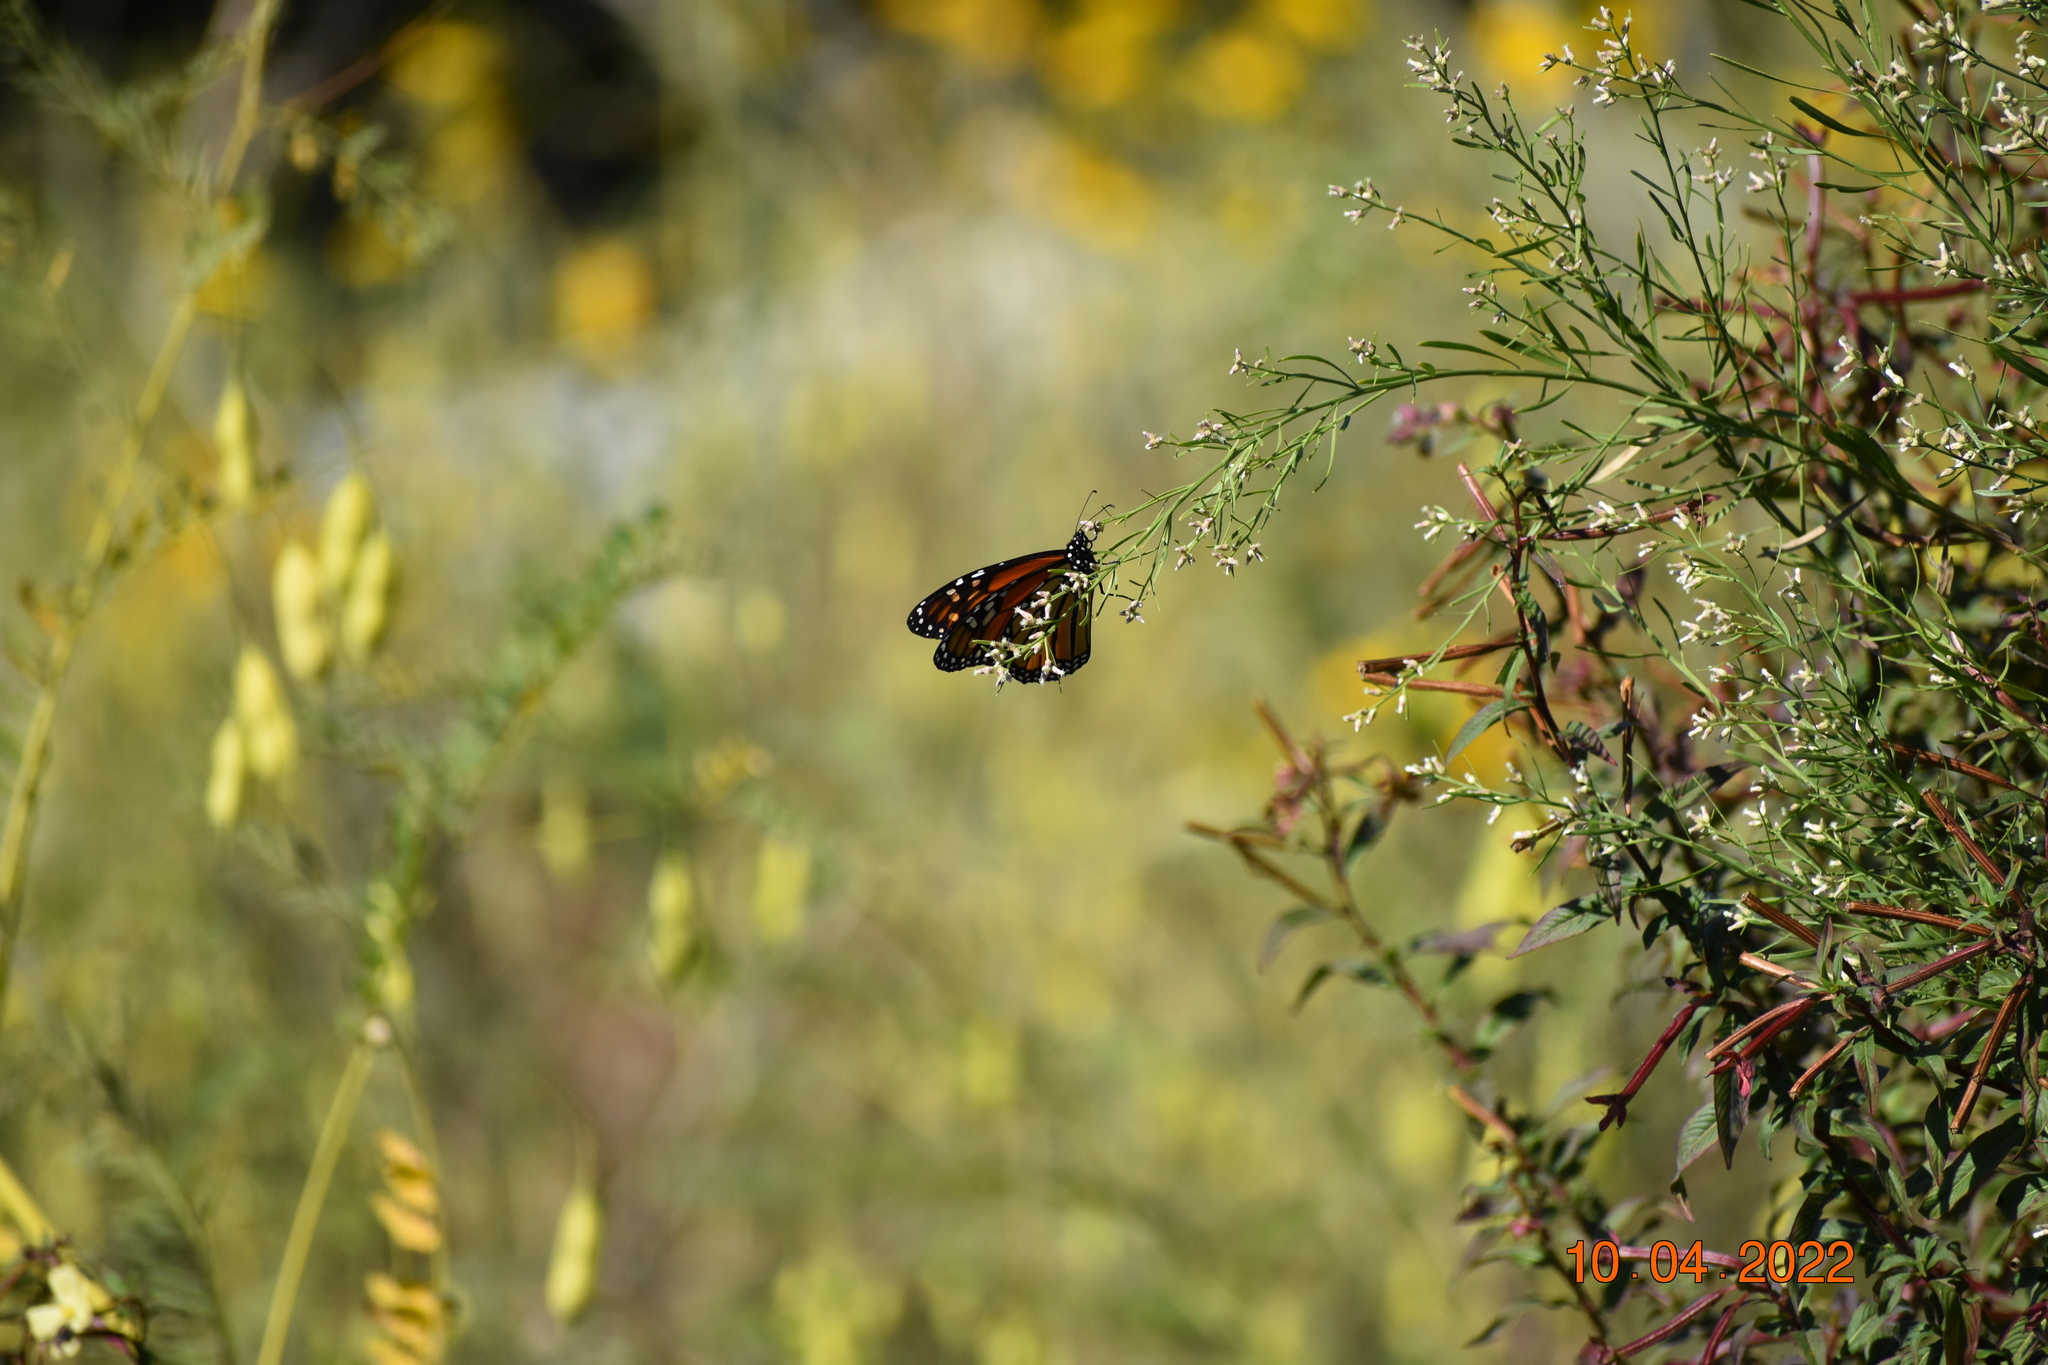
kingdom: Animalia
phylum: Arthropoda
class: Insecta
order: Lepidoptera
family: Nymphalidae
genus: Danaus
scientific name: Danaus plexippus
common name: Monarch
